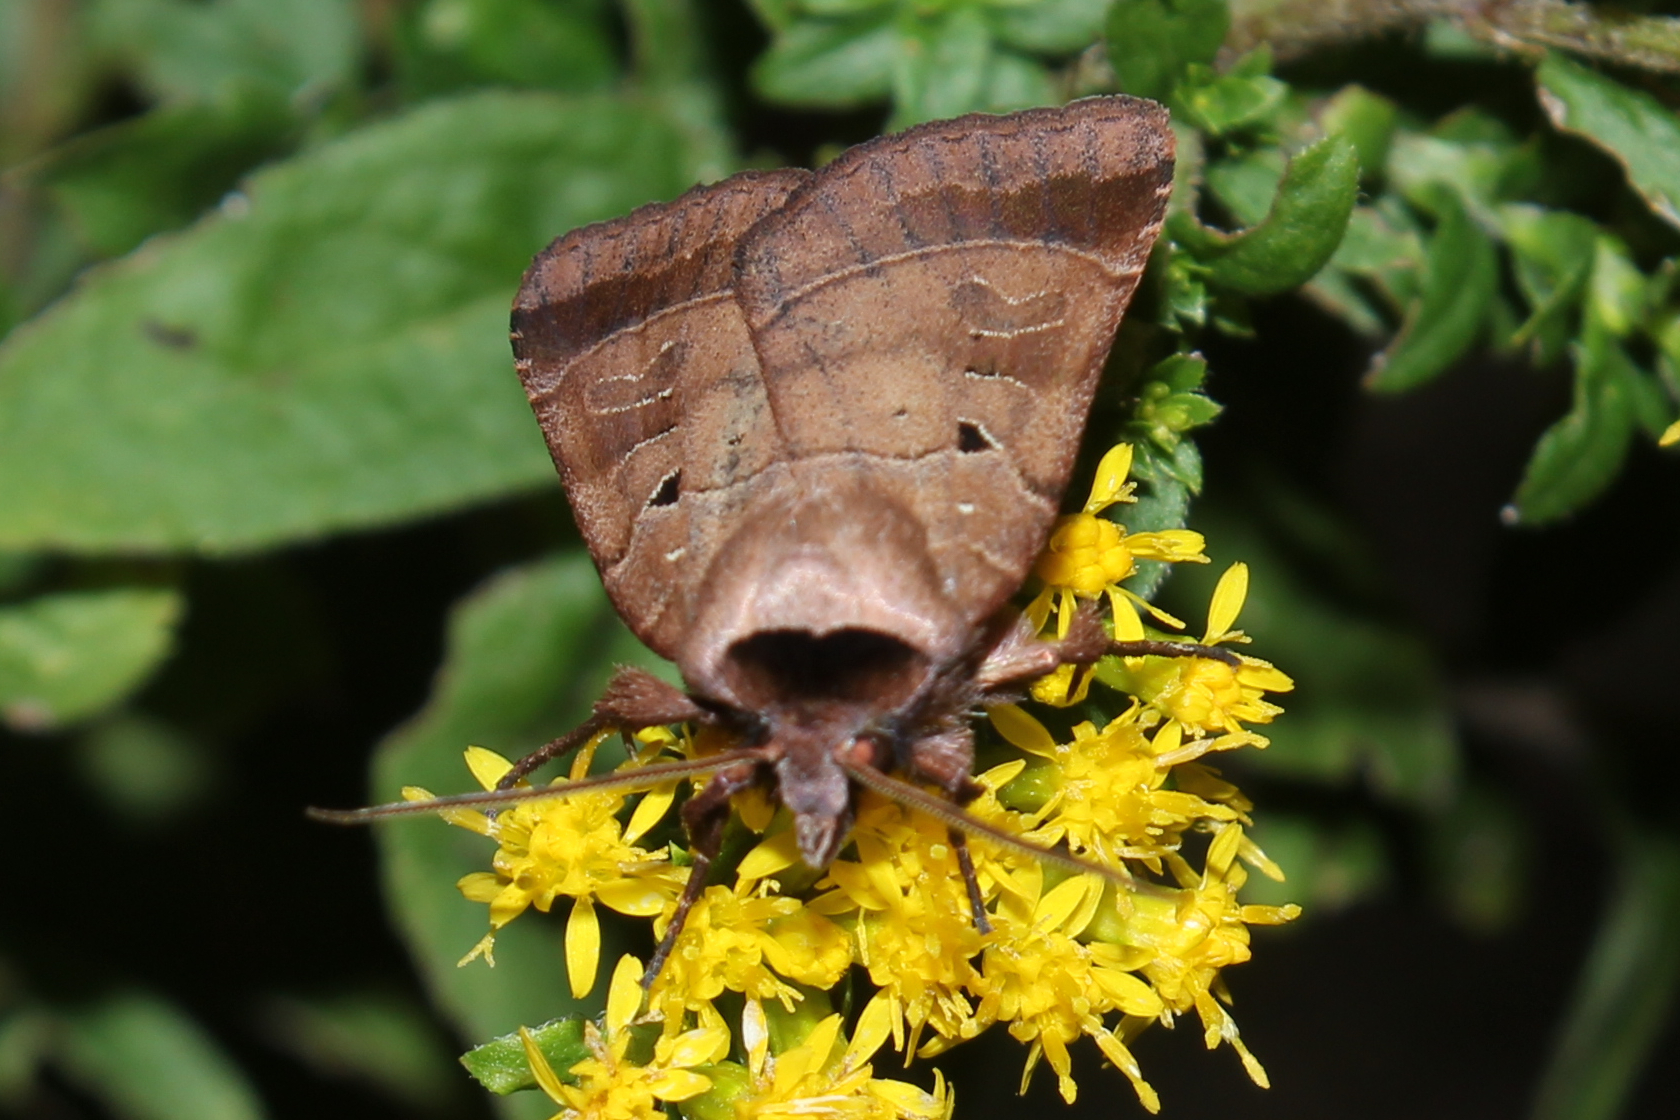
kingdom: Animalia
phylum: Arthropoda
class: Insecta
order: Lepidoptera
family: Noctuidae
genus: Agnorisma
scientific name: Agnorisma badinodis
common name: Pale-banded dart
